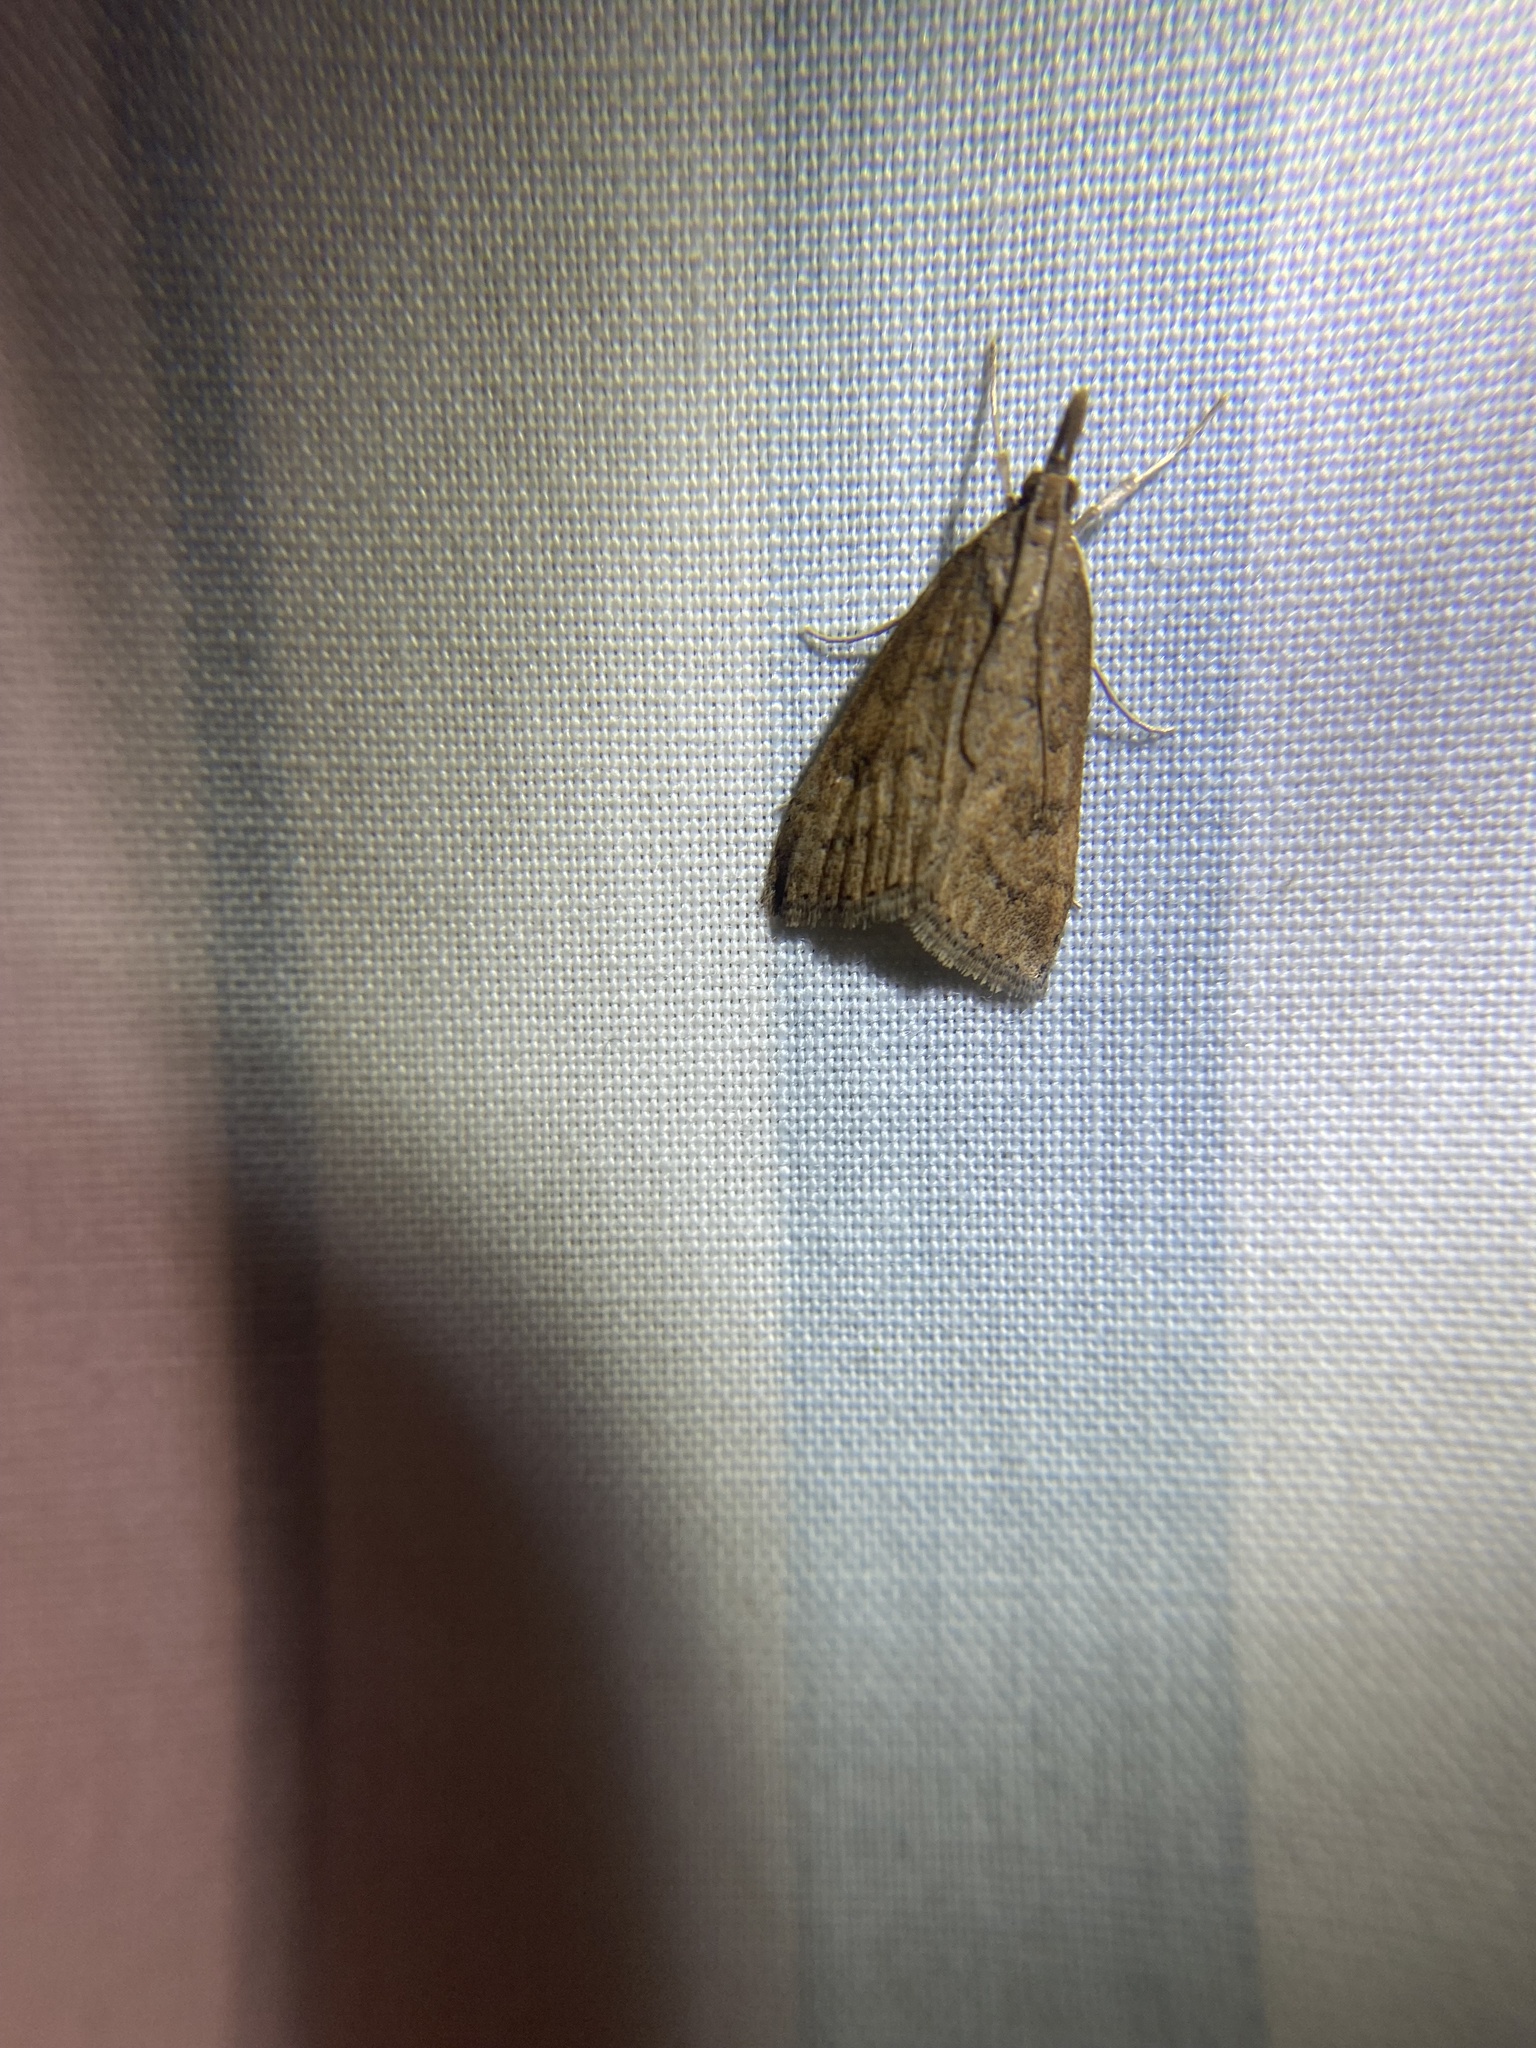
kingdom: Animalia
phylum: Arthropoda
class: Insecta
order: Lepidoptera
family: Crambidae
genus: Udea
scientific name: Udea rubigalis
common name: Celery leaftier moth
